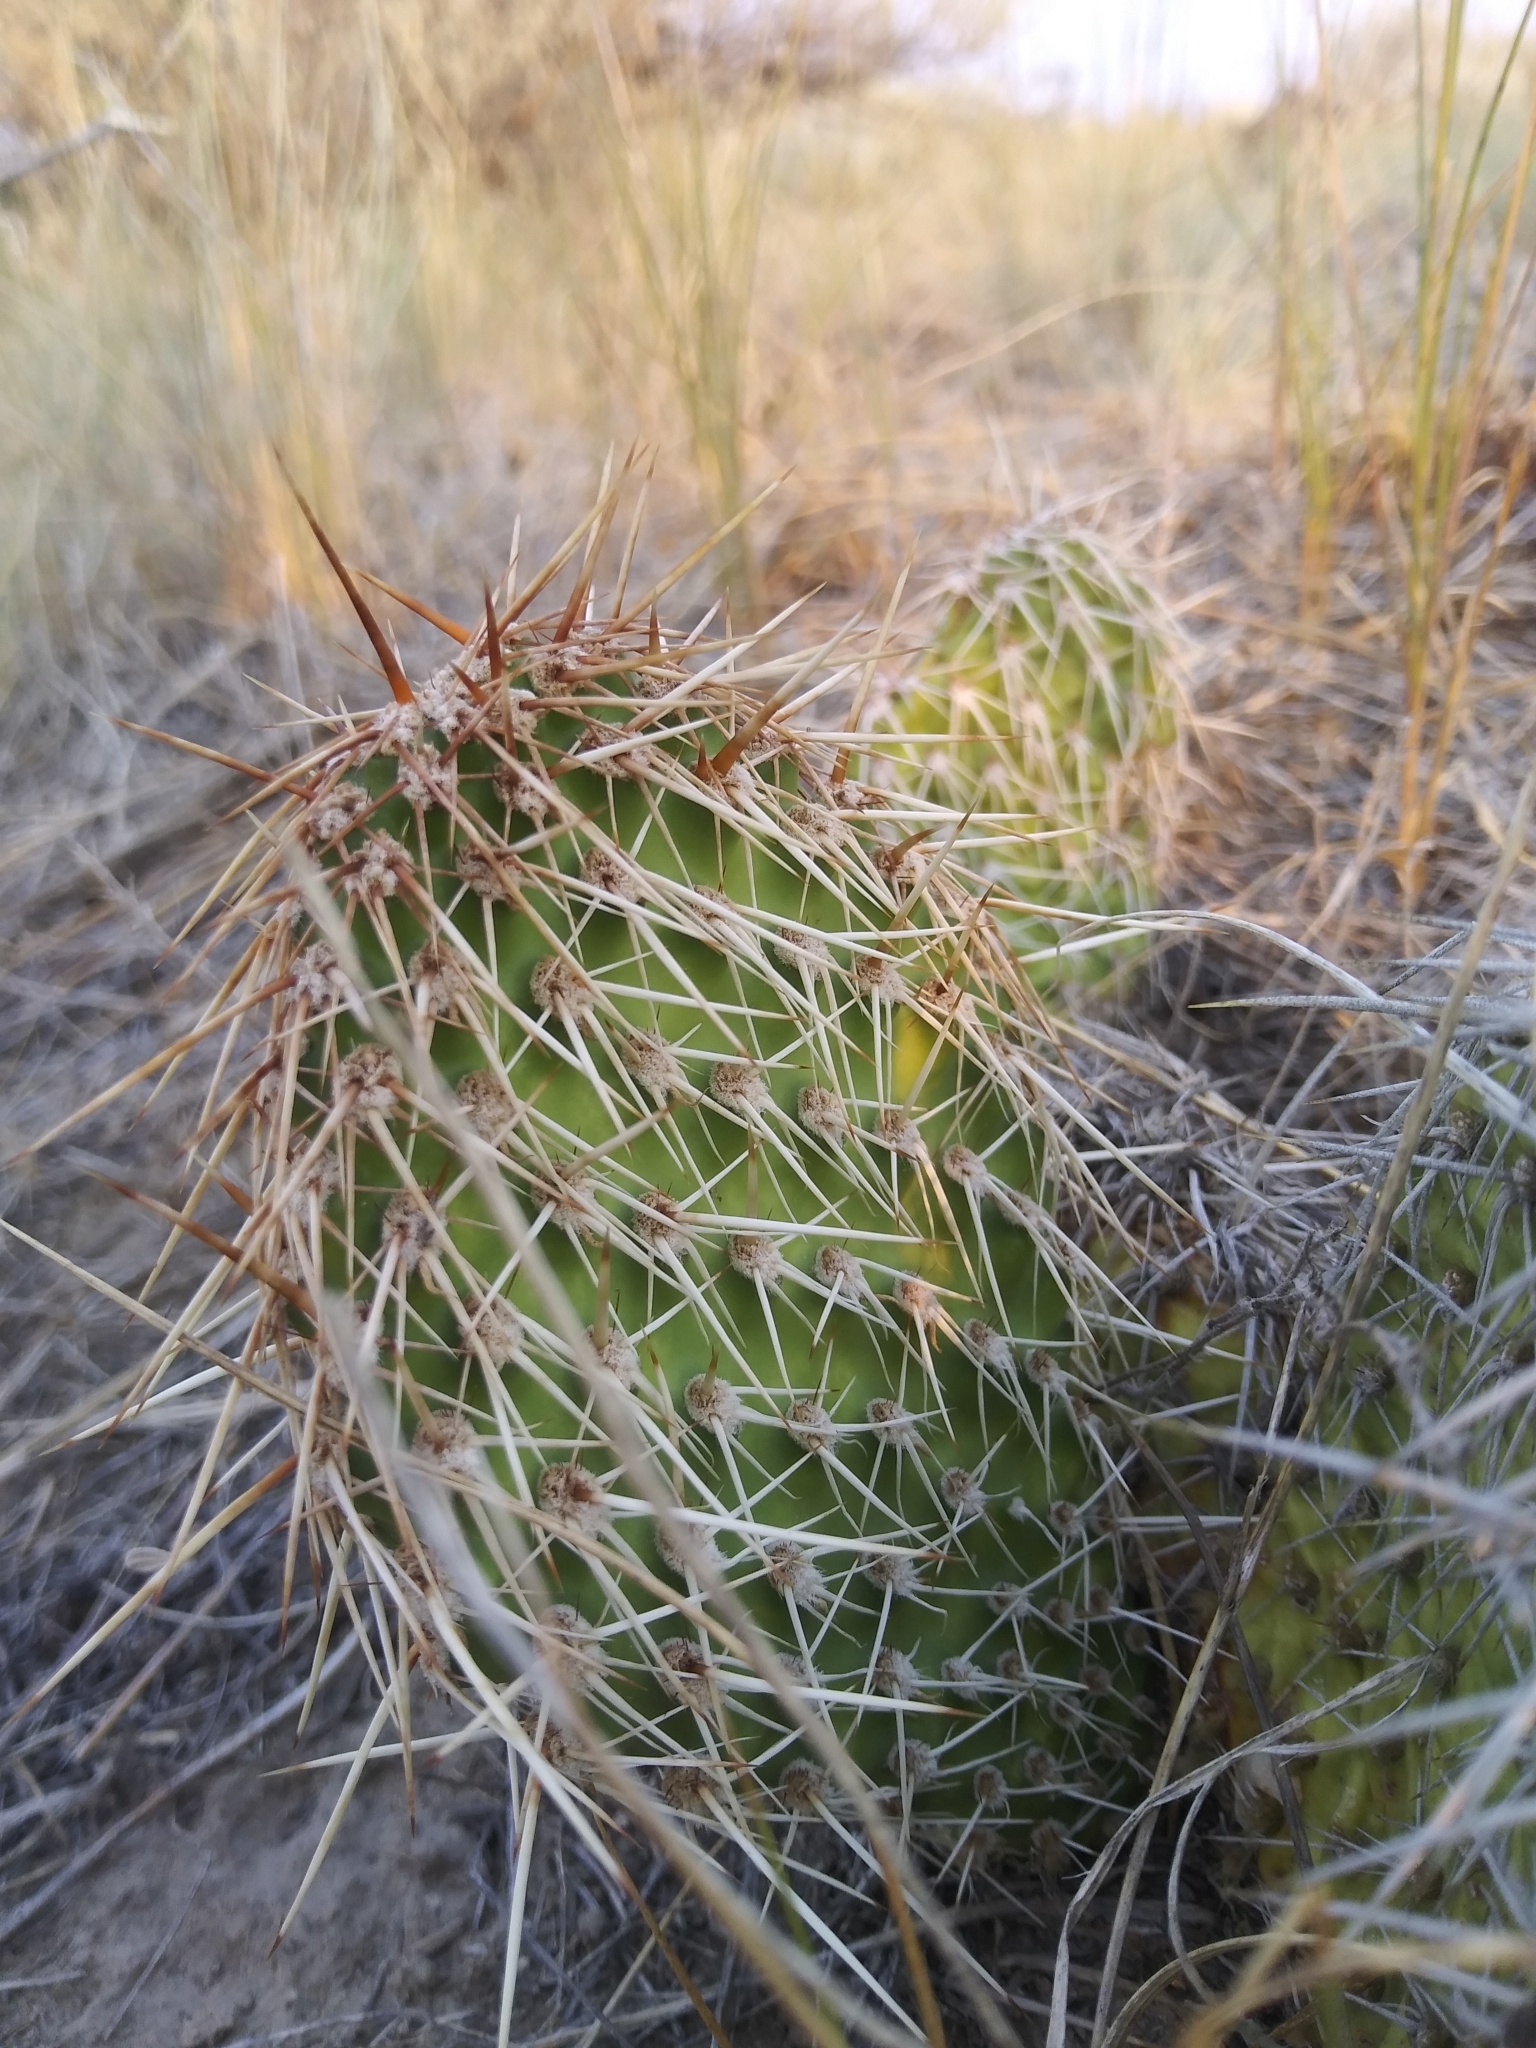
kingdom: Plantae
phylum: Tracheophyta
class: Magnoliopsida
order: Caryophyllales
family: Cactaceae
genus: Opuntia
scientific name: Opuntia polyacantha
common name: Plains prickly-pear
